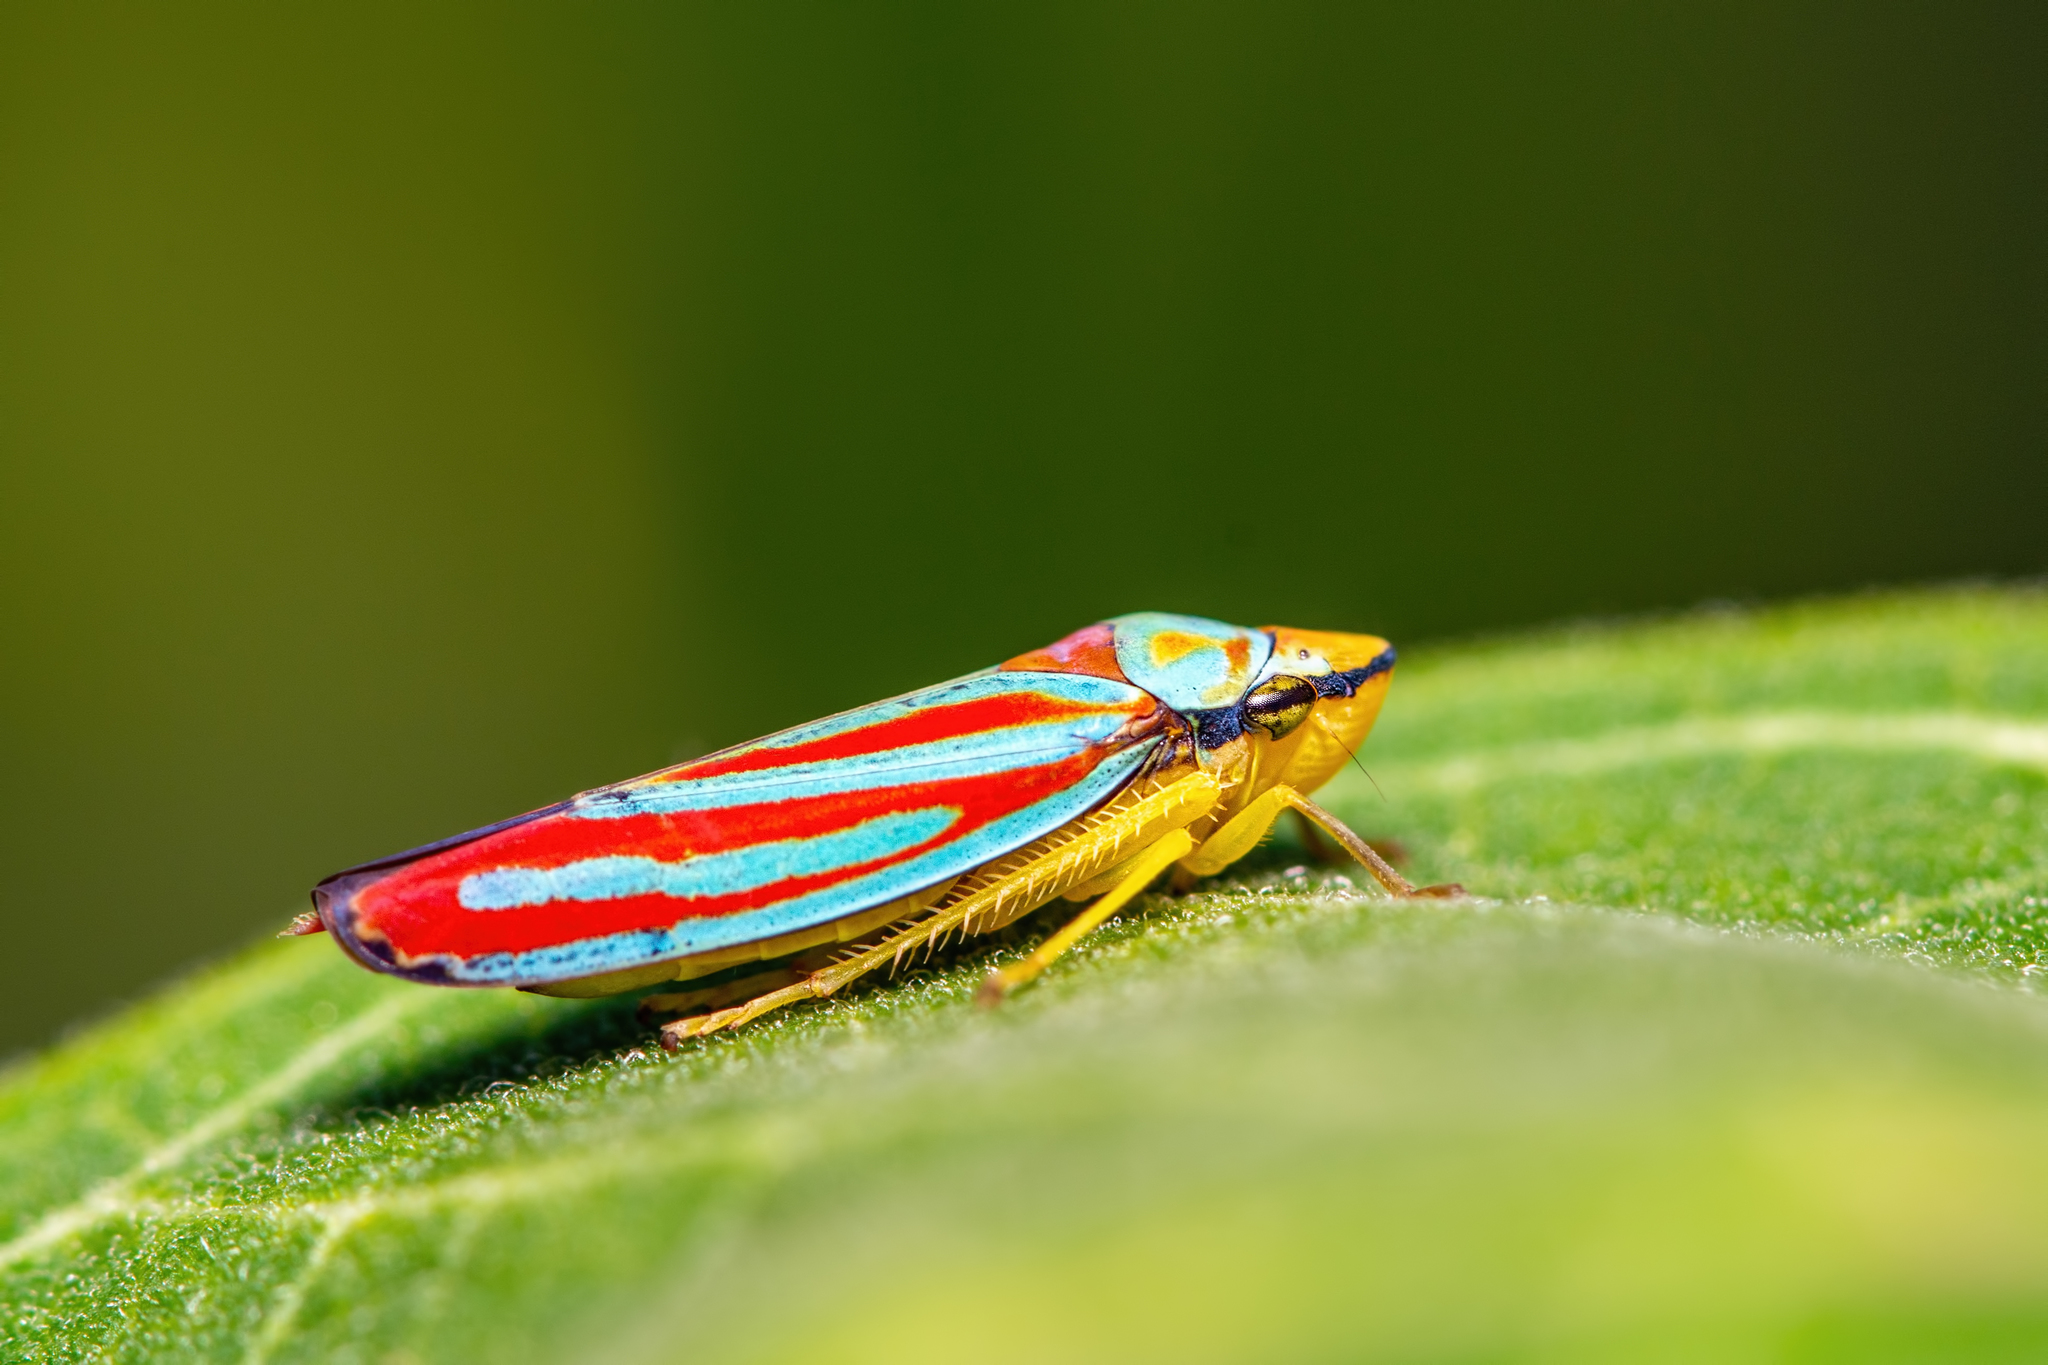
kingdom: Animalia
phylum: Arthropoda
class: Insecta
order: Hemiptera
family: Cicadellidae
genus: Graphocephala
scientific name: Graphocephala coccinea
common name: Candy-striped leafhopper
